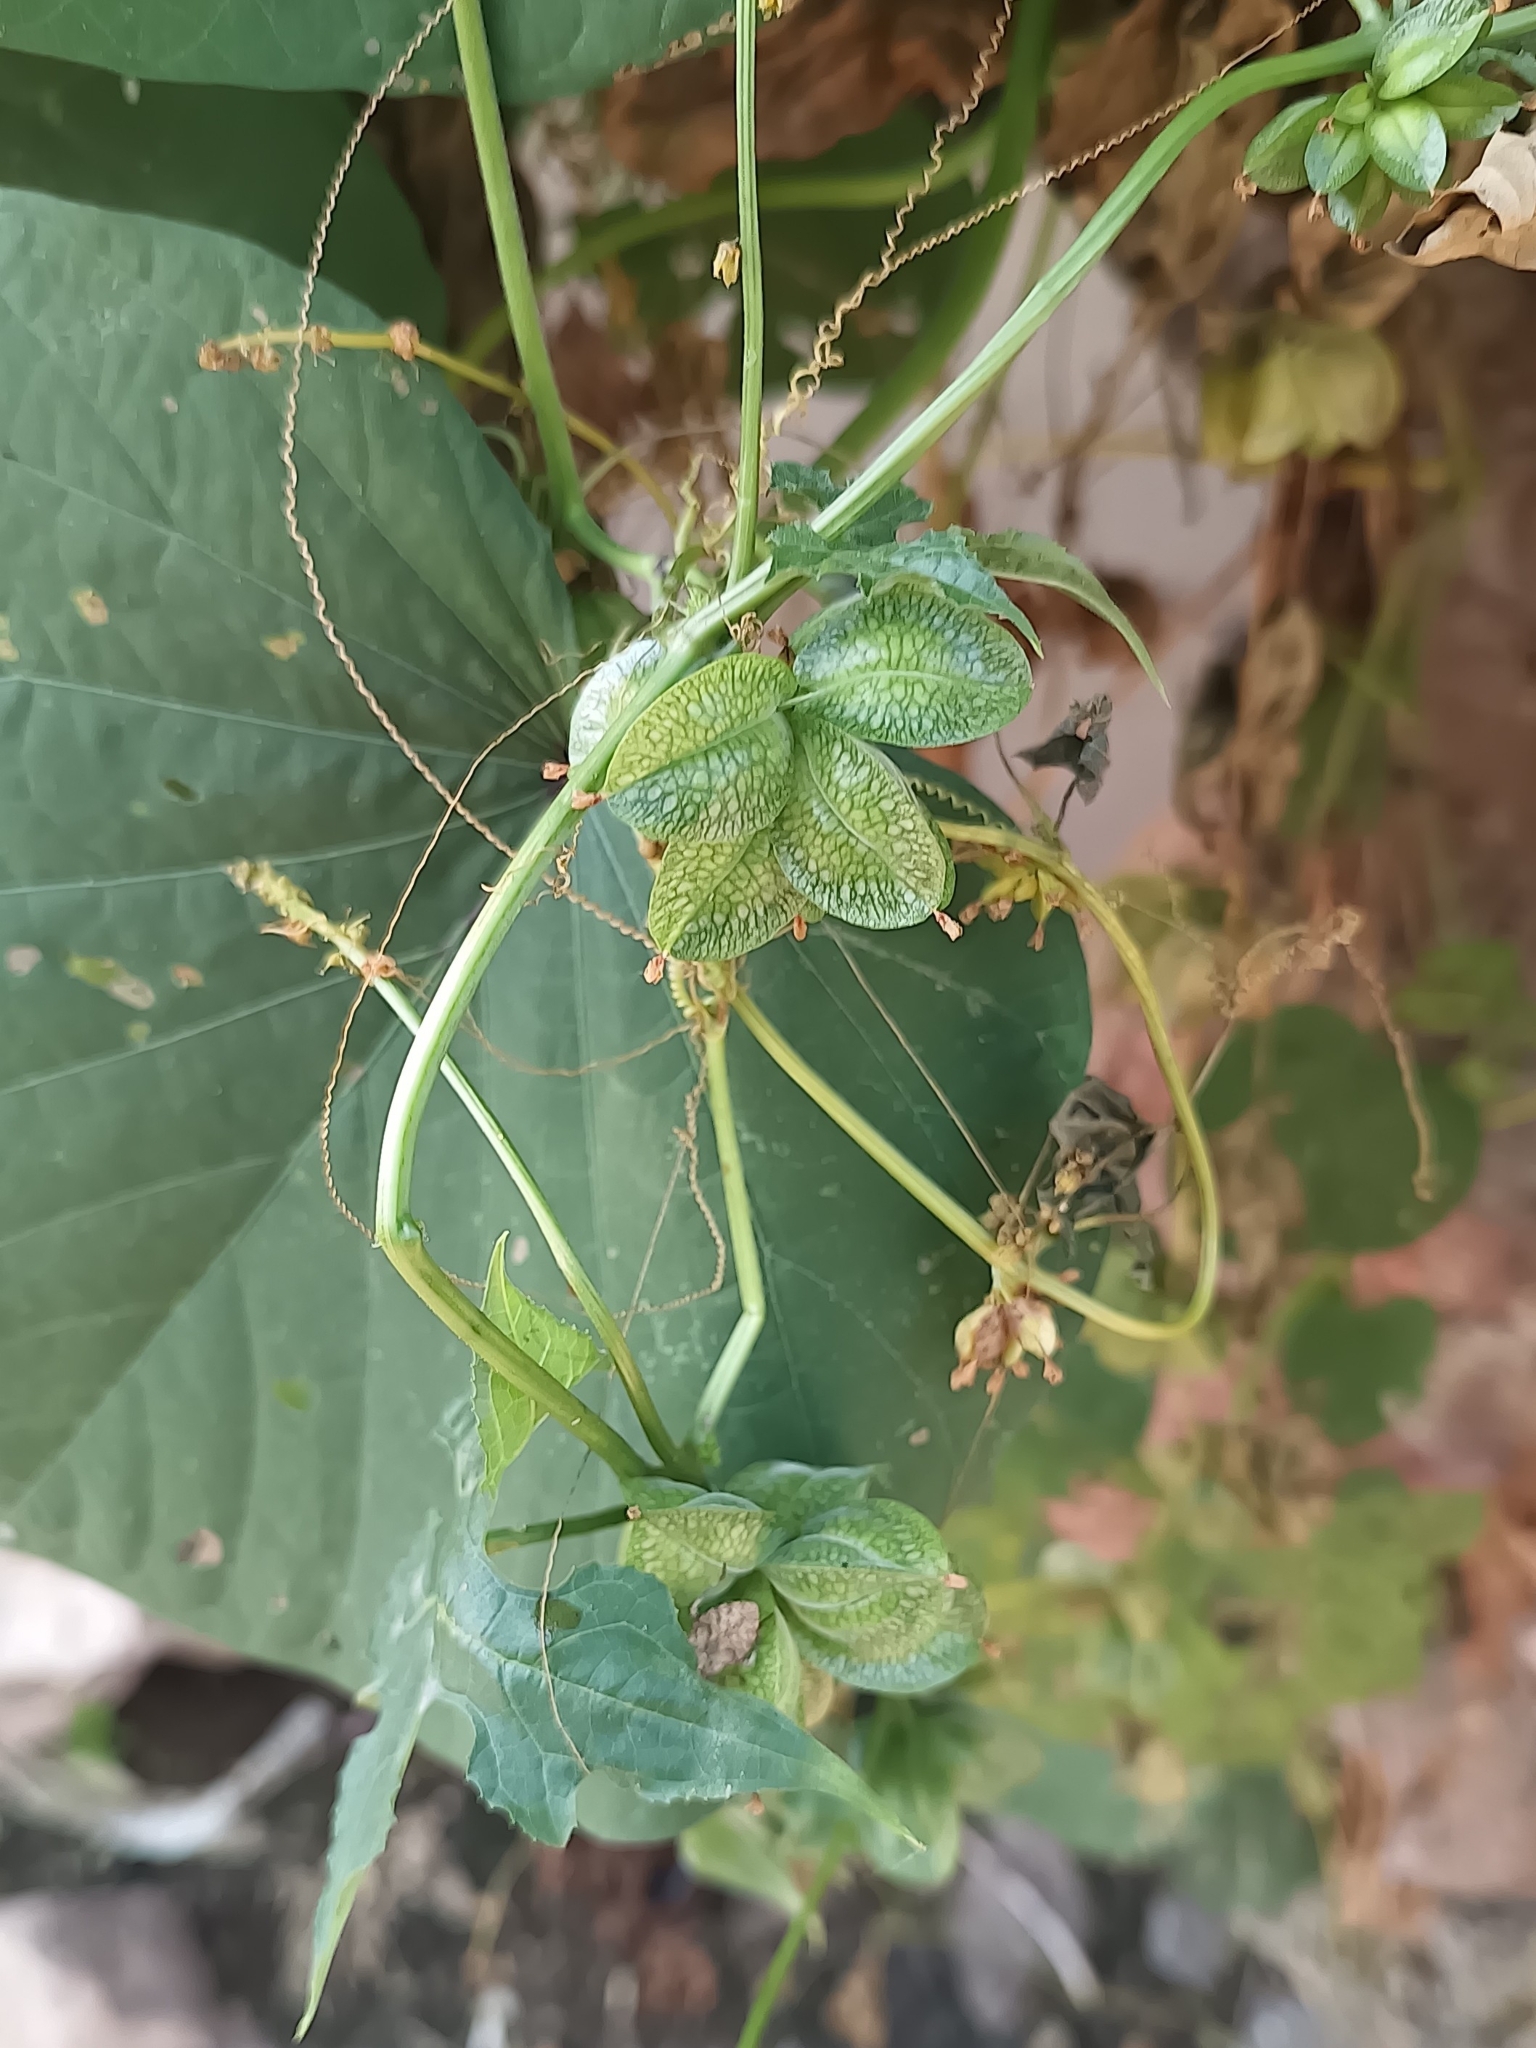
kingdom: Plantae
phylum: Tracheophyta
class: Magnoliopsida
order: Cucurbitales
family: Cucurbitaceae
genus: Sechiopsis
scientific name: Sechiopsis triquetra
